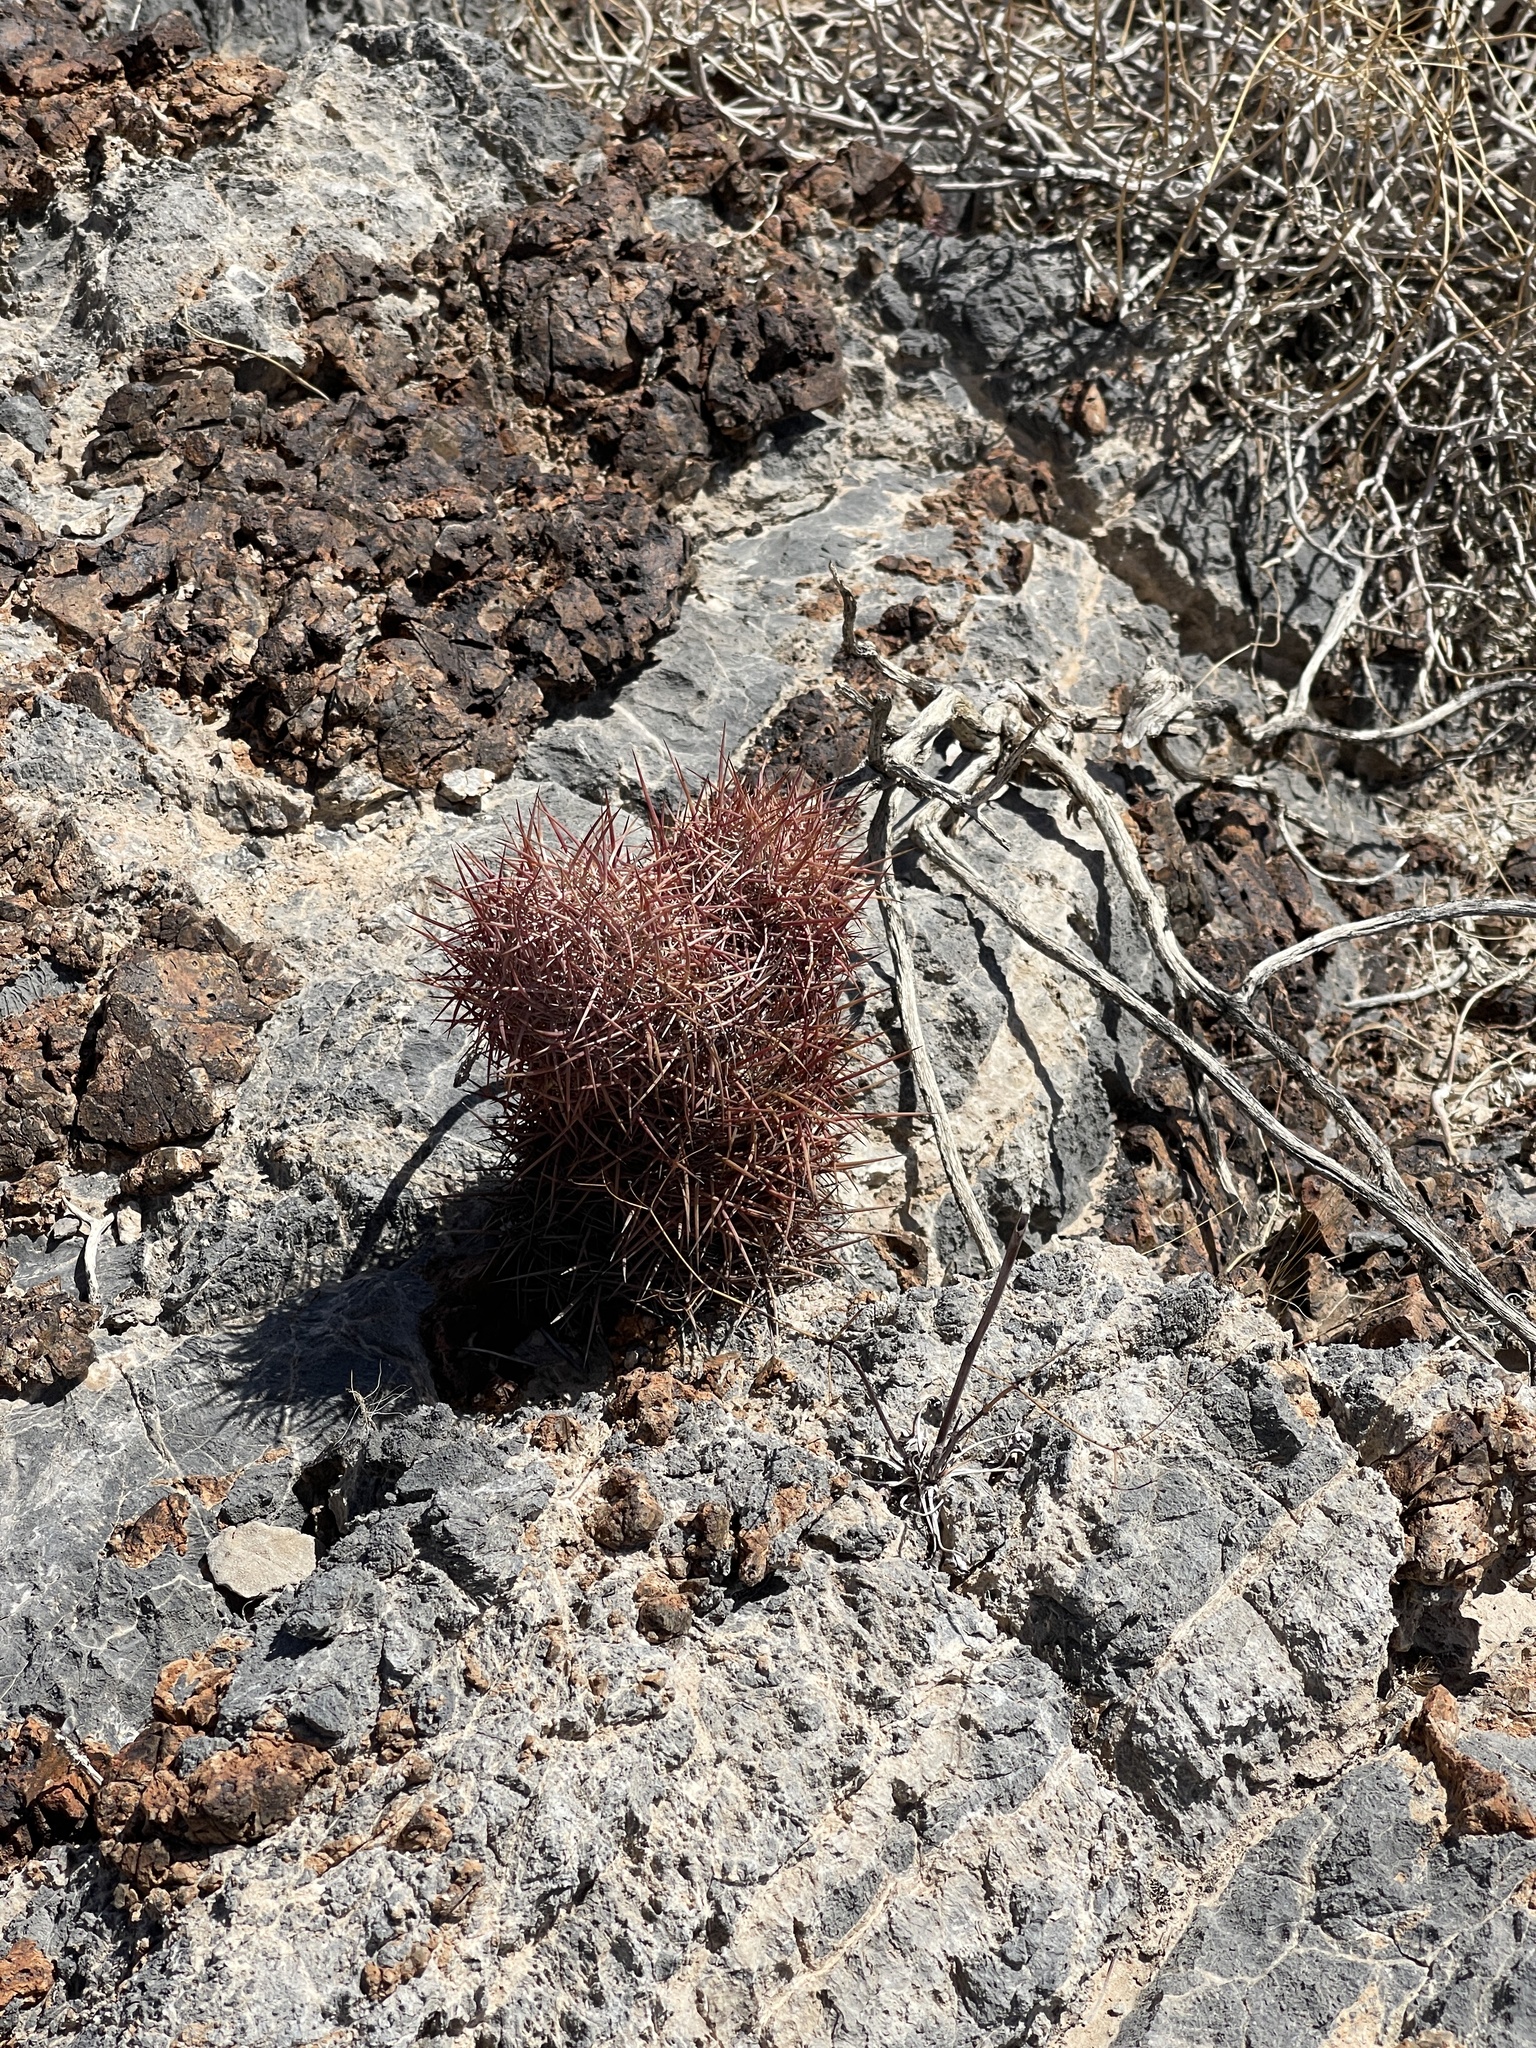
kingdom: Plantae
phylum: Tracheophyta
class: Magnoliopsida
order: Caryophyllales
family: Cactaceae
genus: Sclerocactus
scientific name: Sclerocactus johnsonii
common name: Eight-spine fishhook cactus
